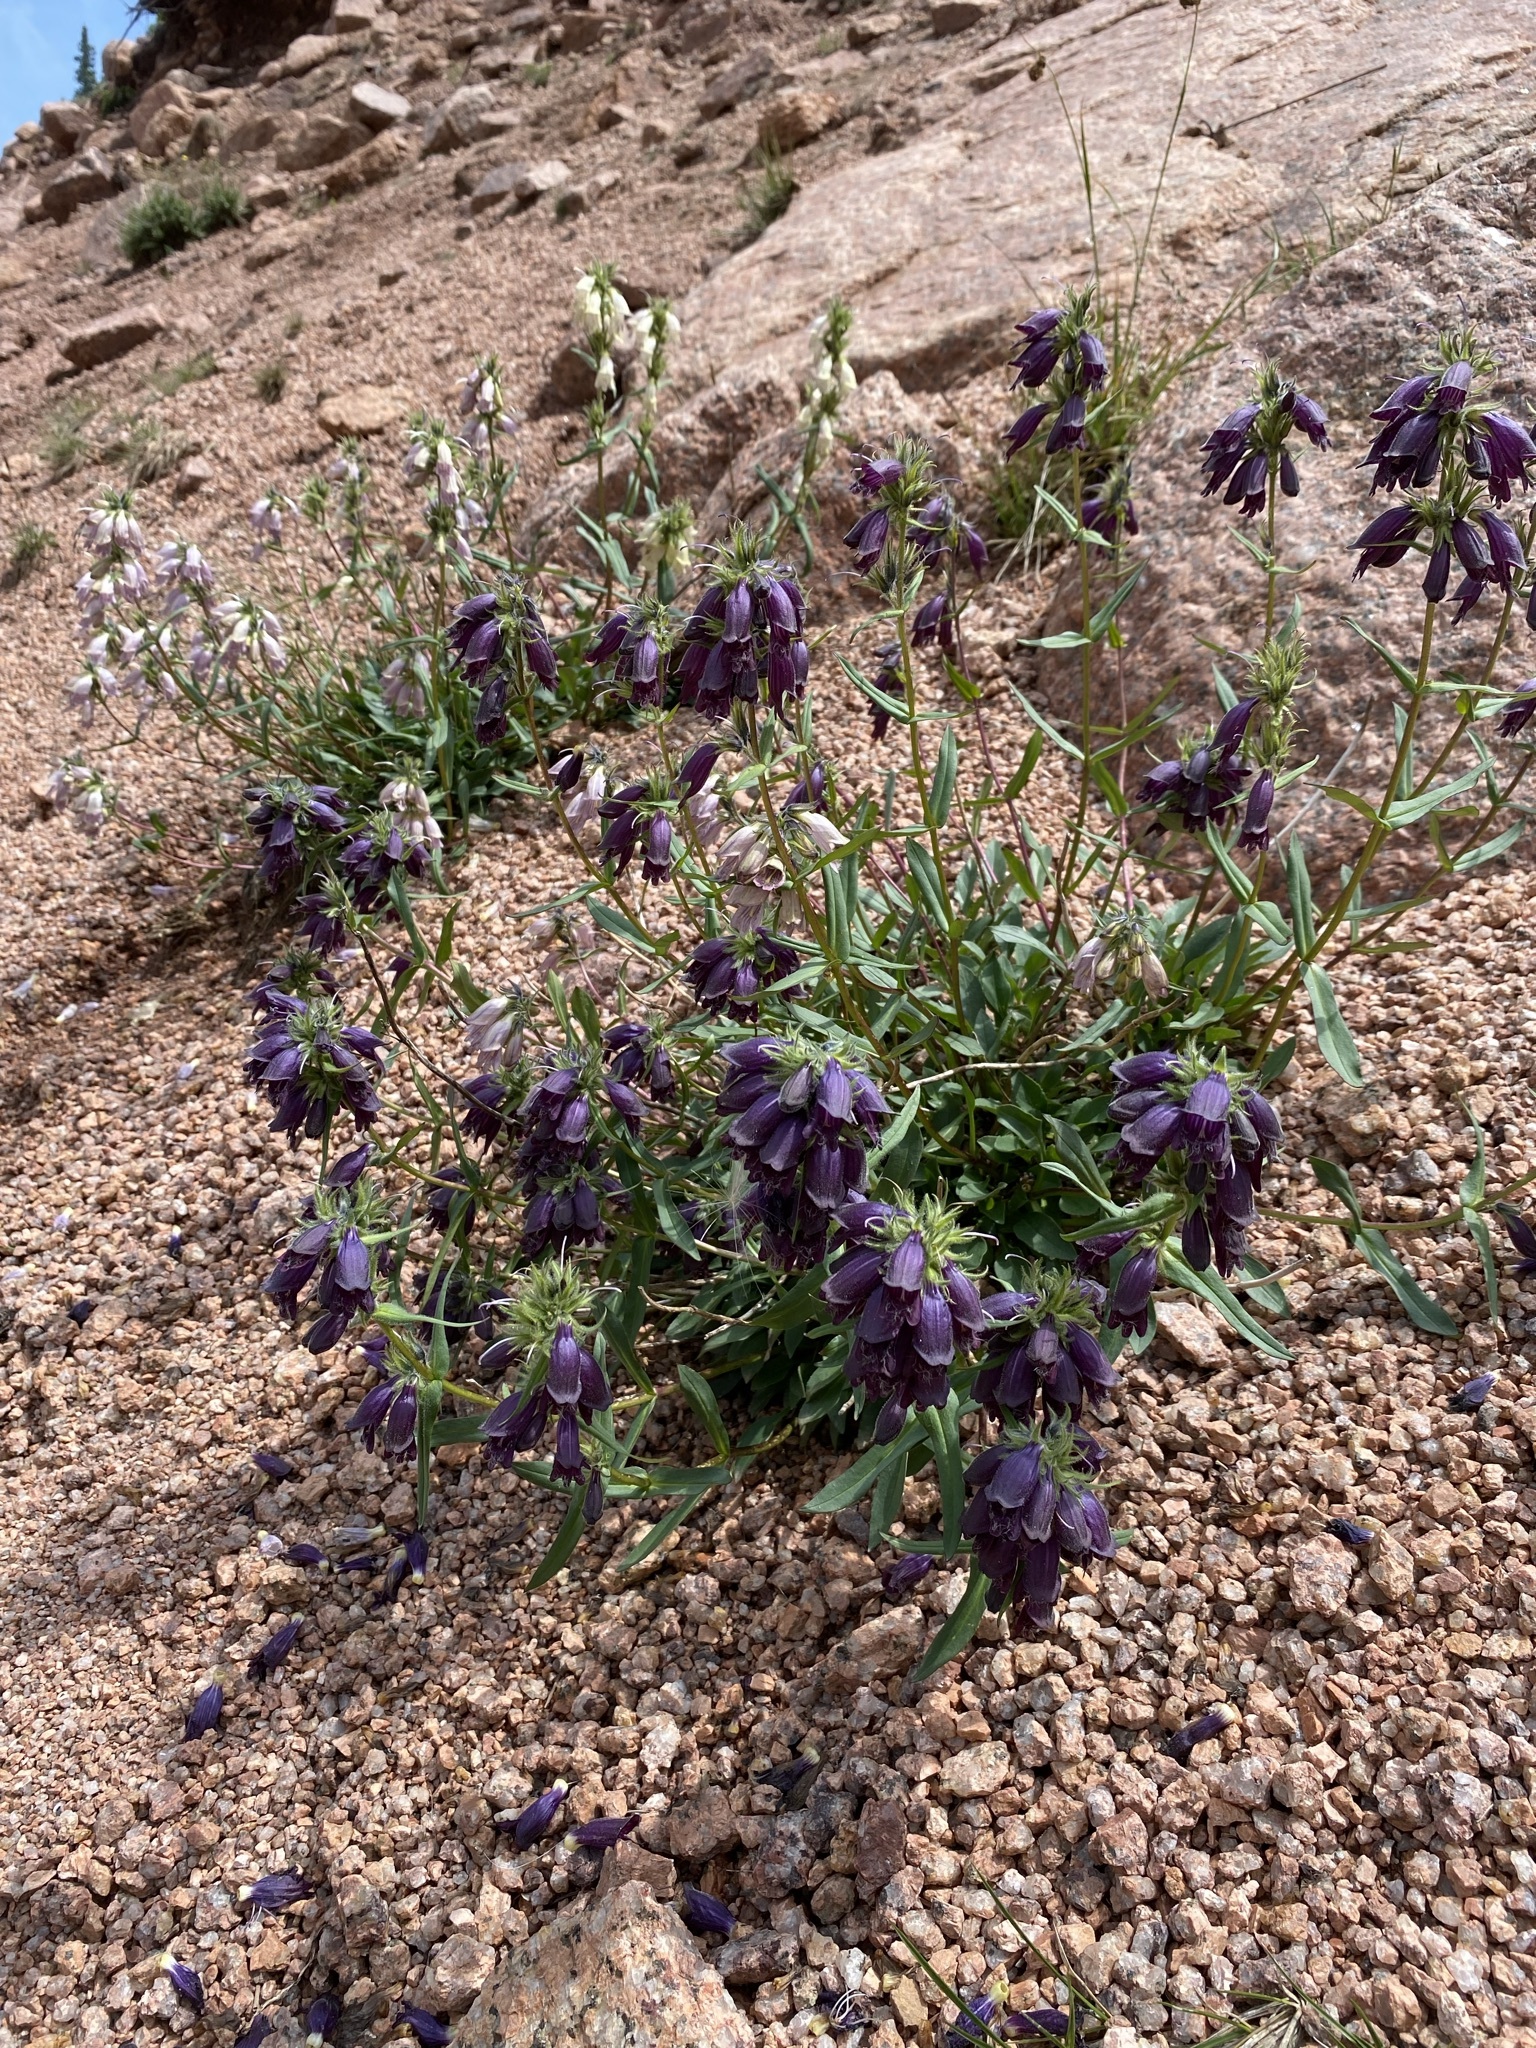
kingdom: Plantae
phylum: Tracheophyta
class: Magnoliopsida
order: Lamiales
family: Plantaginaceae
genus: Penstemon
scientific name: Penstemon whippleanus
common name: Whipple's penstemon
